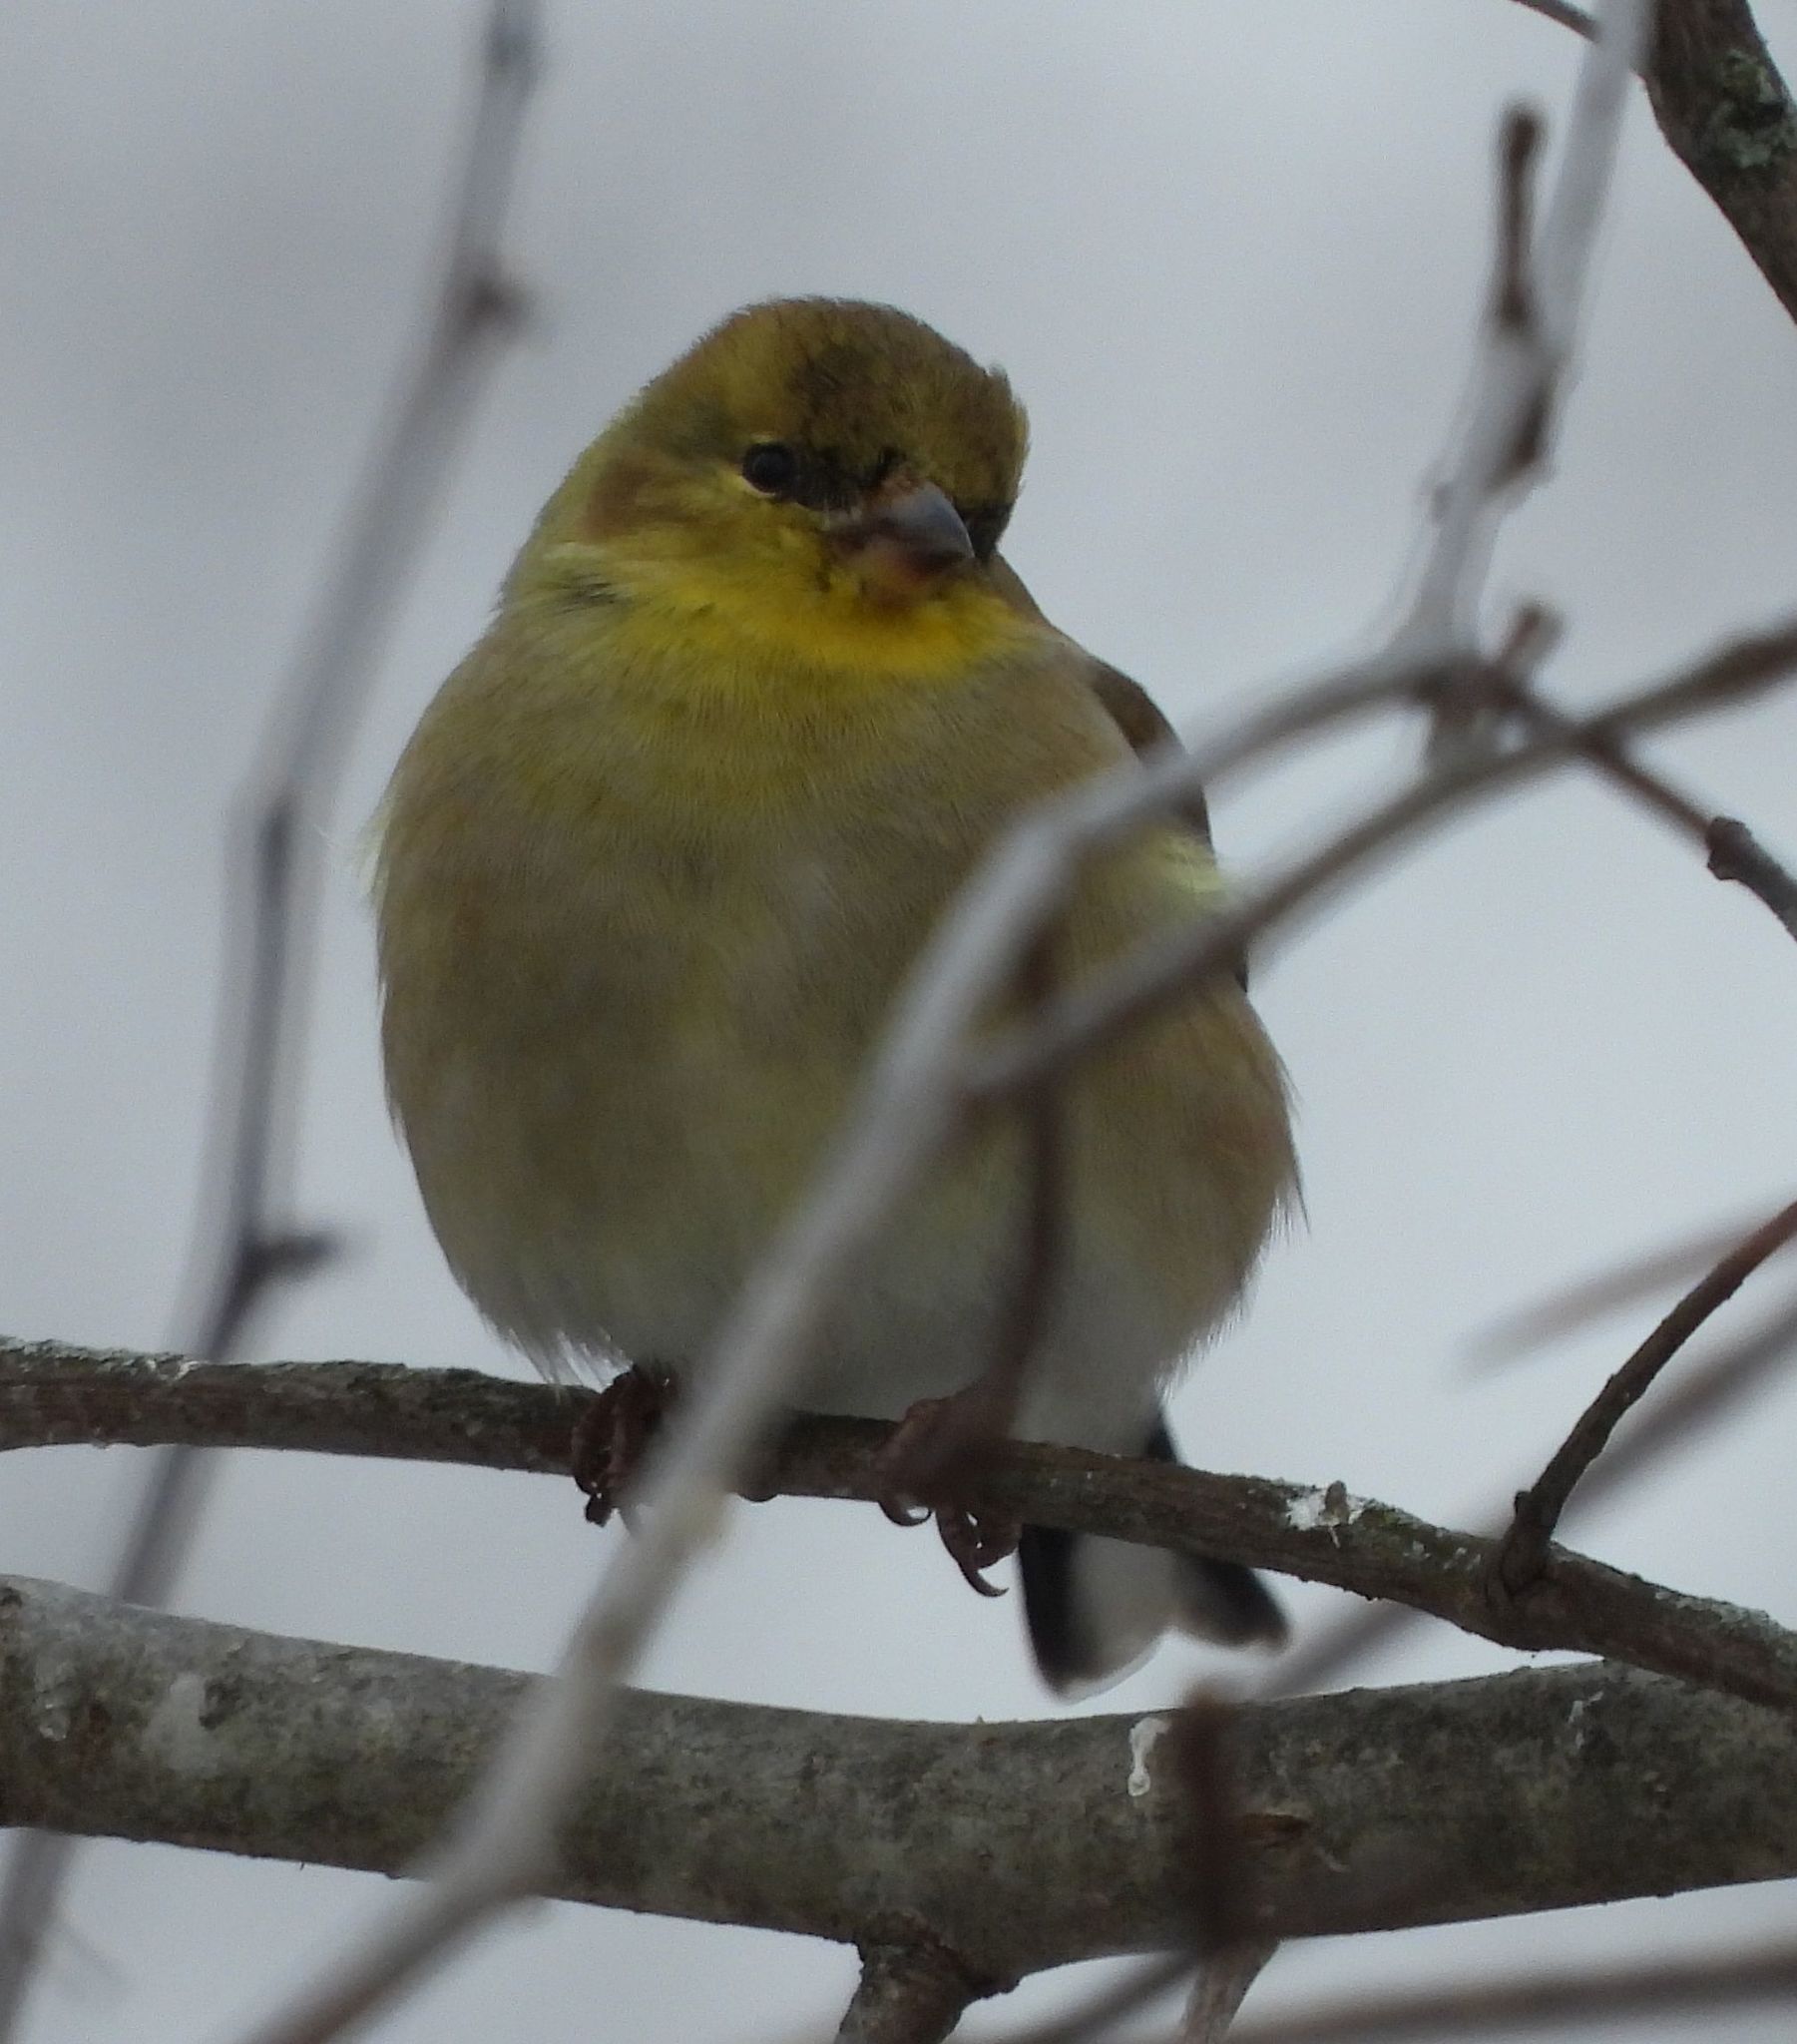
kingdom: Animalia
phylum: Chordata
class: Aves
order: Passeriformes
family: Fringillidae
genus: Spinus
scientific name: Spinus tristis
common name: American goldfinch
